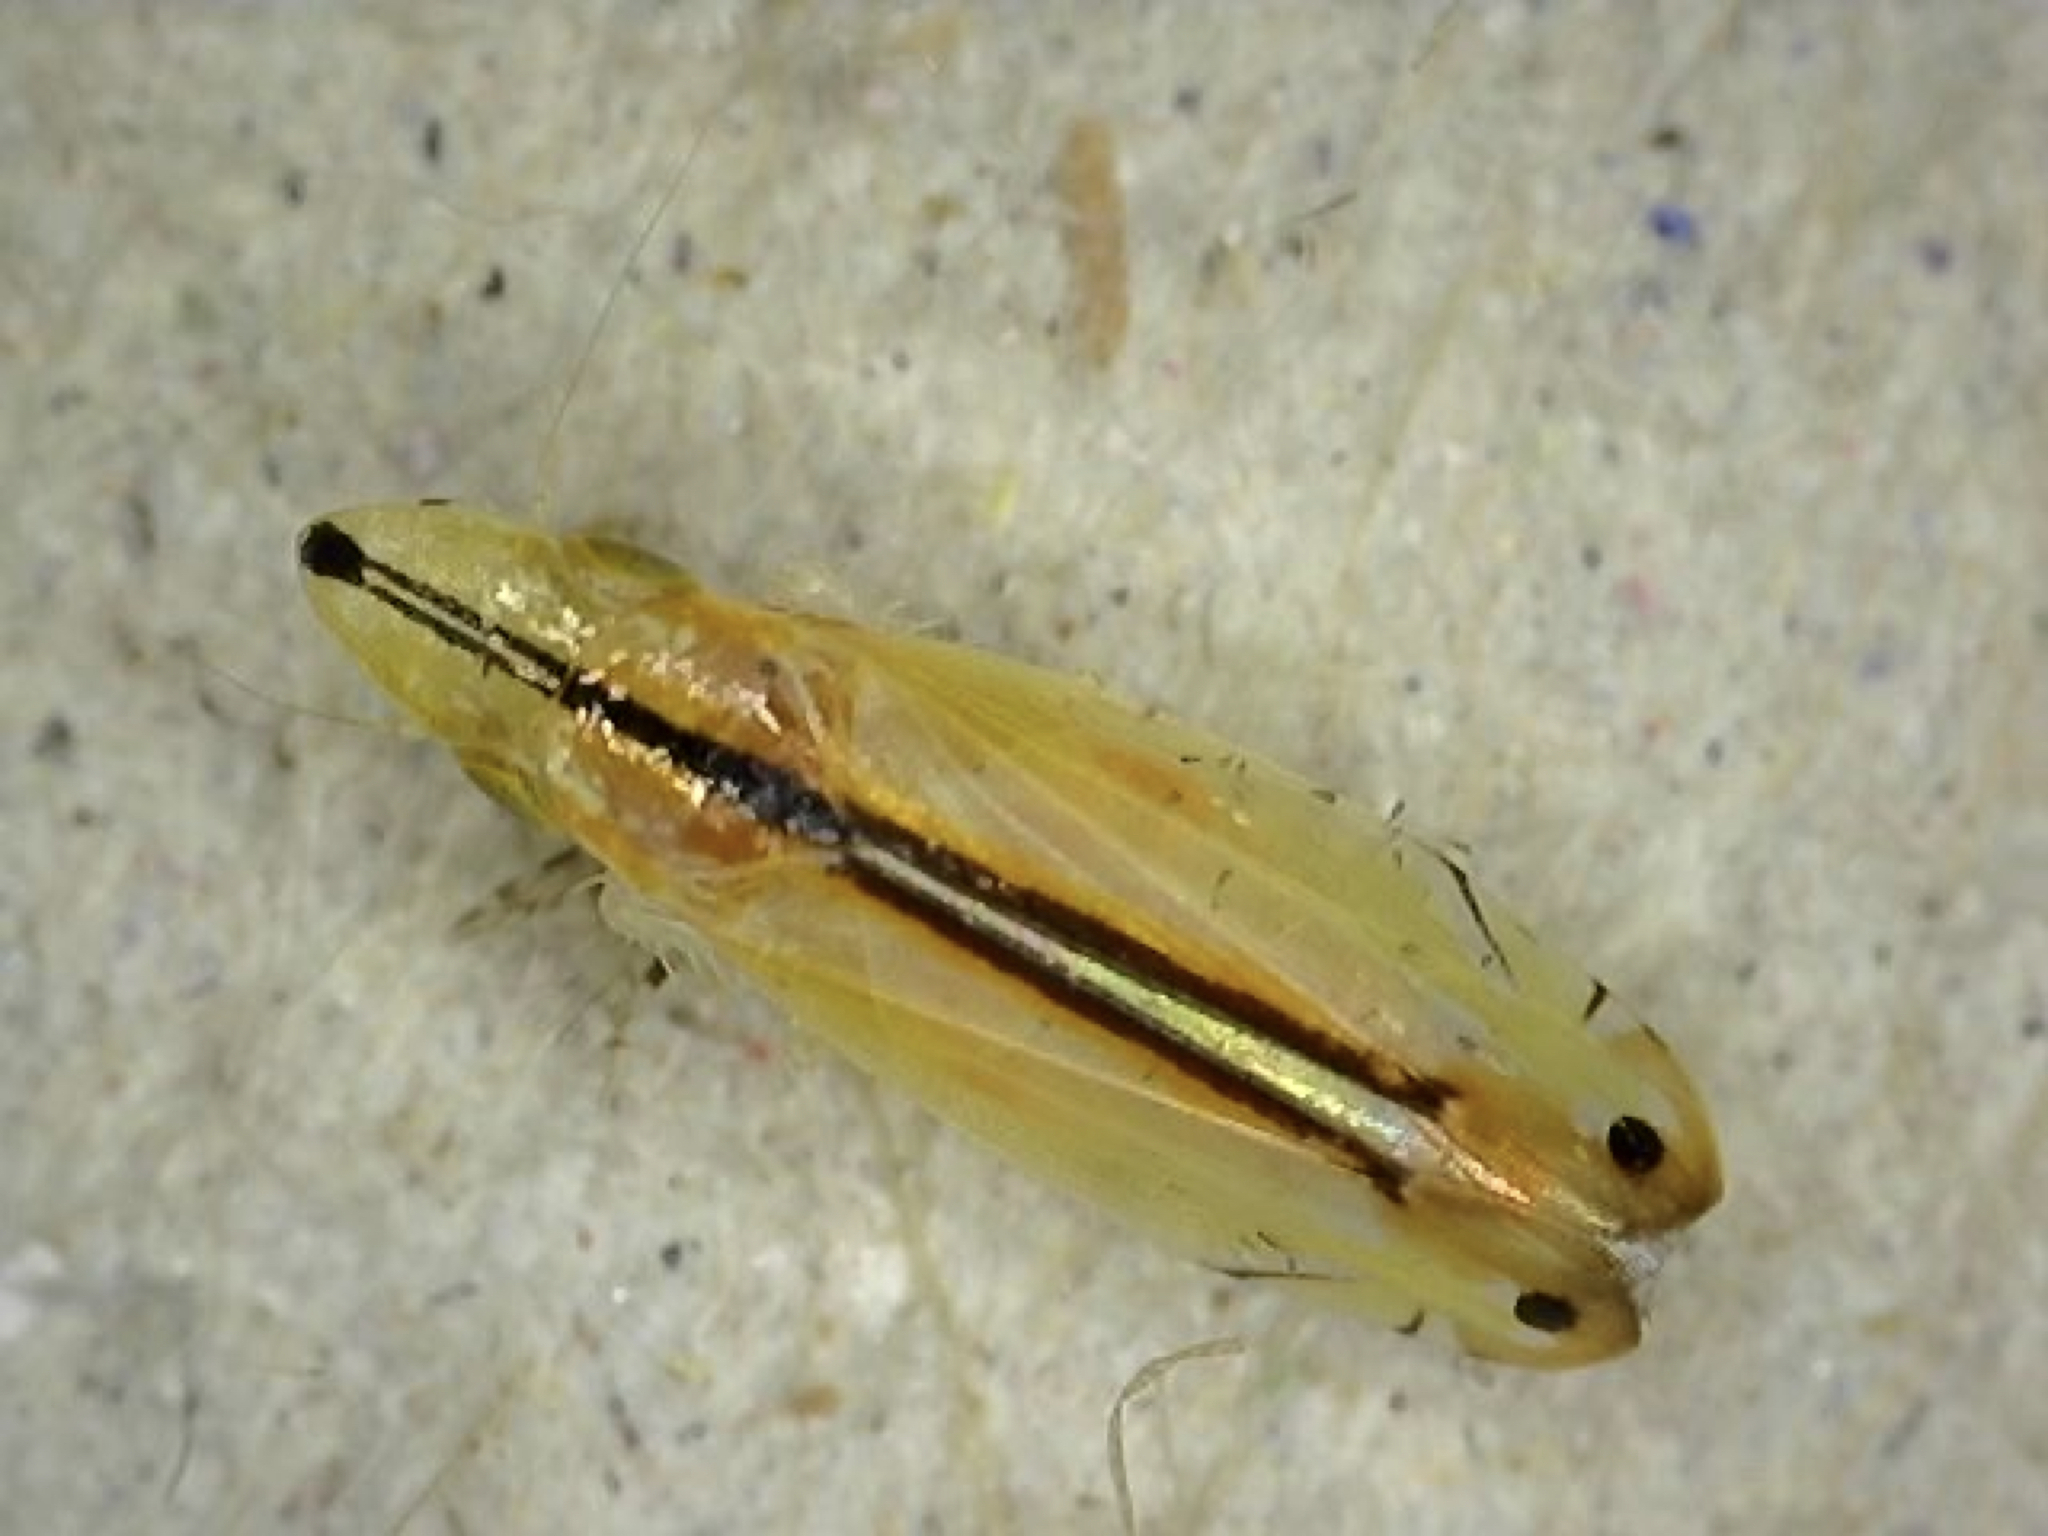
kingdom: Animalia
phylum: Arthropoda
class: Insecta
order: Hemiptera
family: Cicadellidae
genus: Sophonia
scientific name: Sophonia orientalis
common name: Two-spotted leafhopper
